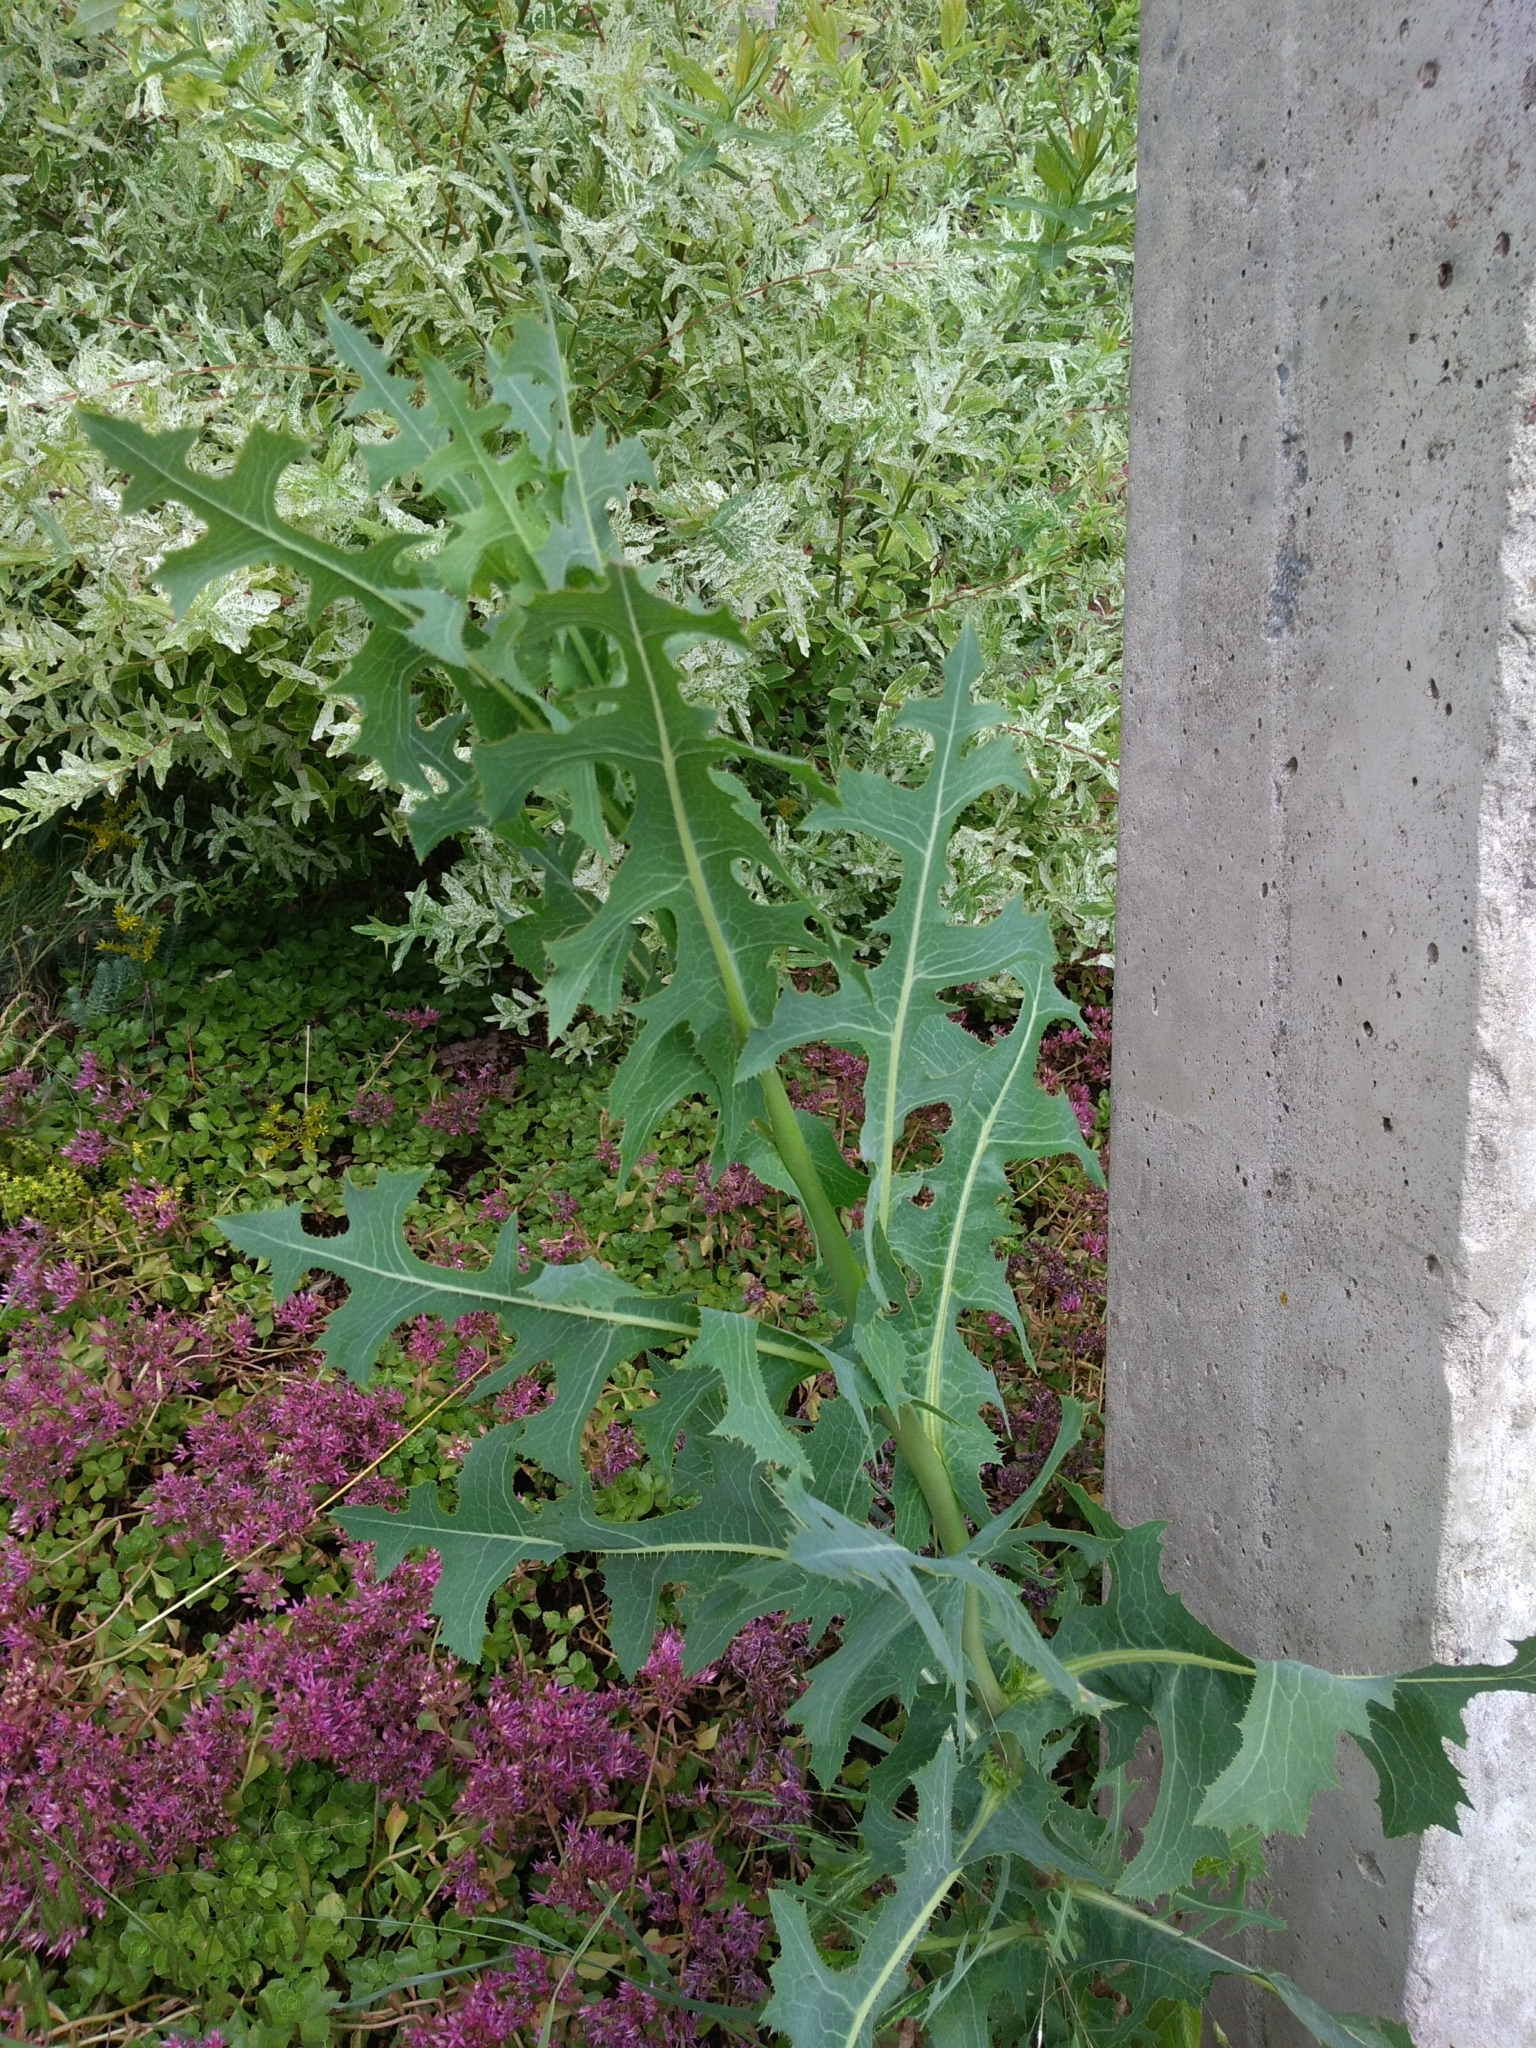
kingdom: Plantae
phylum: Tracheophyta
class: Magnoliopsida
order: Asterales
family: Asteraceae
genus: Lactuca
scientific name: Lactuca serriola
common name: Prickly lettuce
